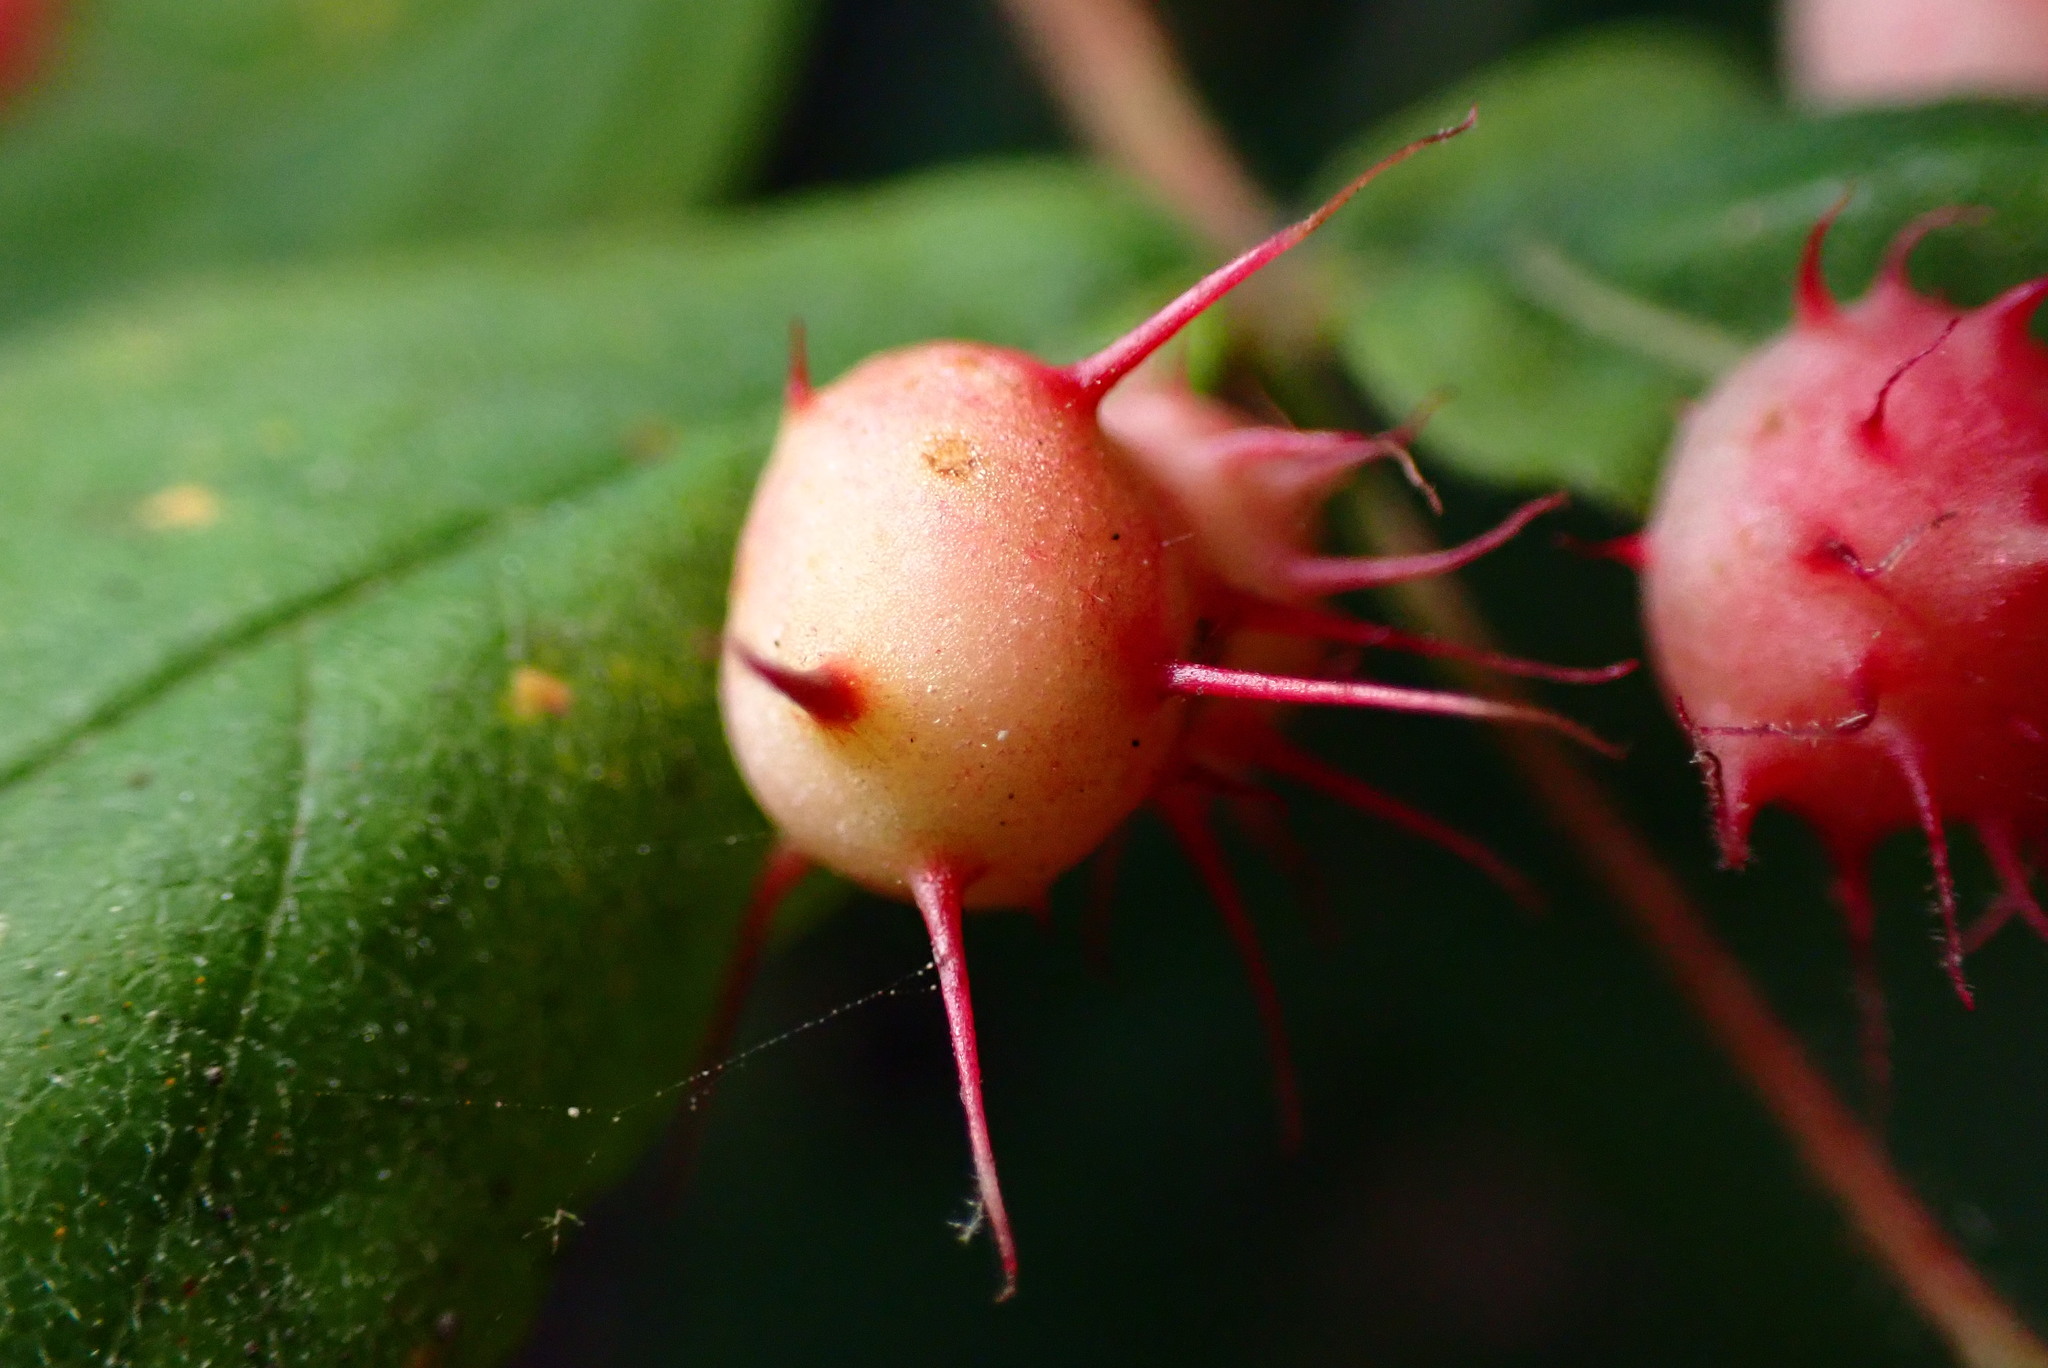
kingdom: Animalia
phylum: Arthropoda
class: Insecta
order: Hymenoptera
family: Cynipidae
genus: Diplolepis
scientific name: Diplolepis polita
